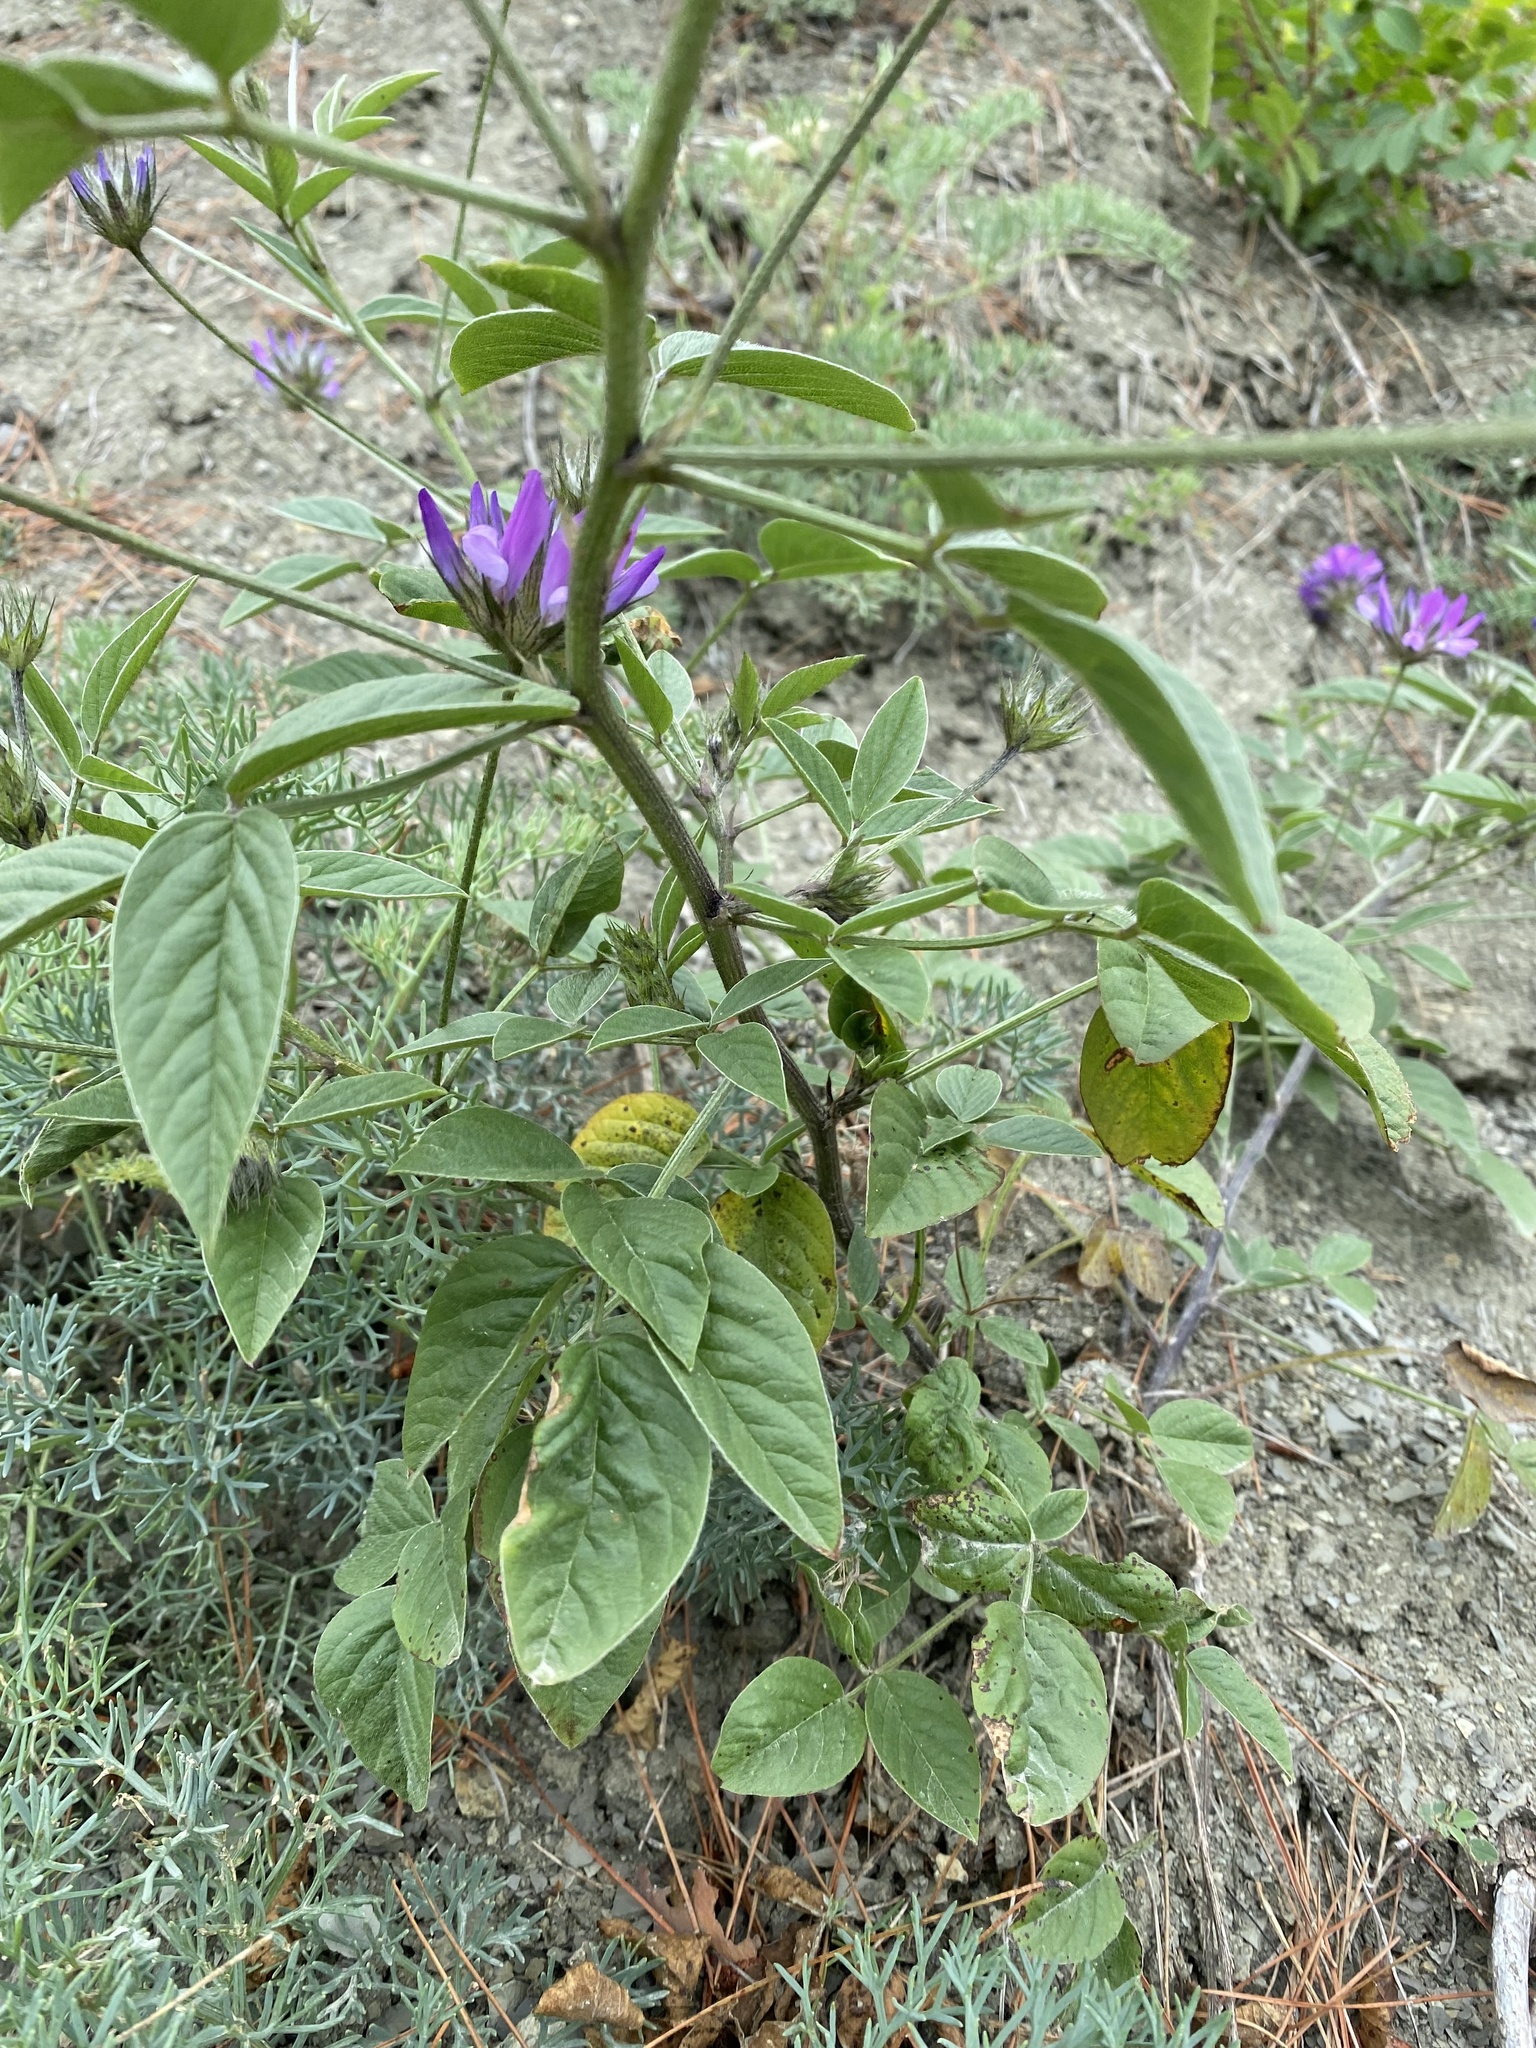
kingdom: Plantae
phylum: Tracheophyta
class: Magnoliopsida
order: Fabales
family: Fabaceae
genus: Bituminaria
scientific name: Bituminaria bituminosa
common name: Arabian pea
